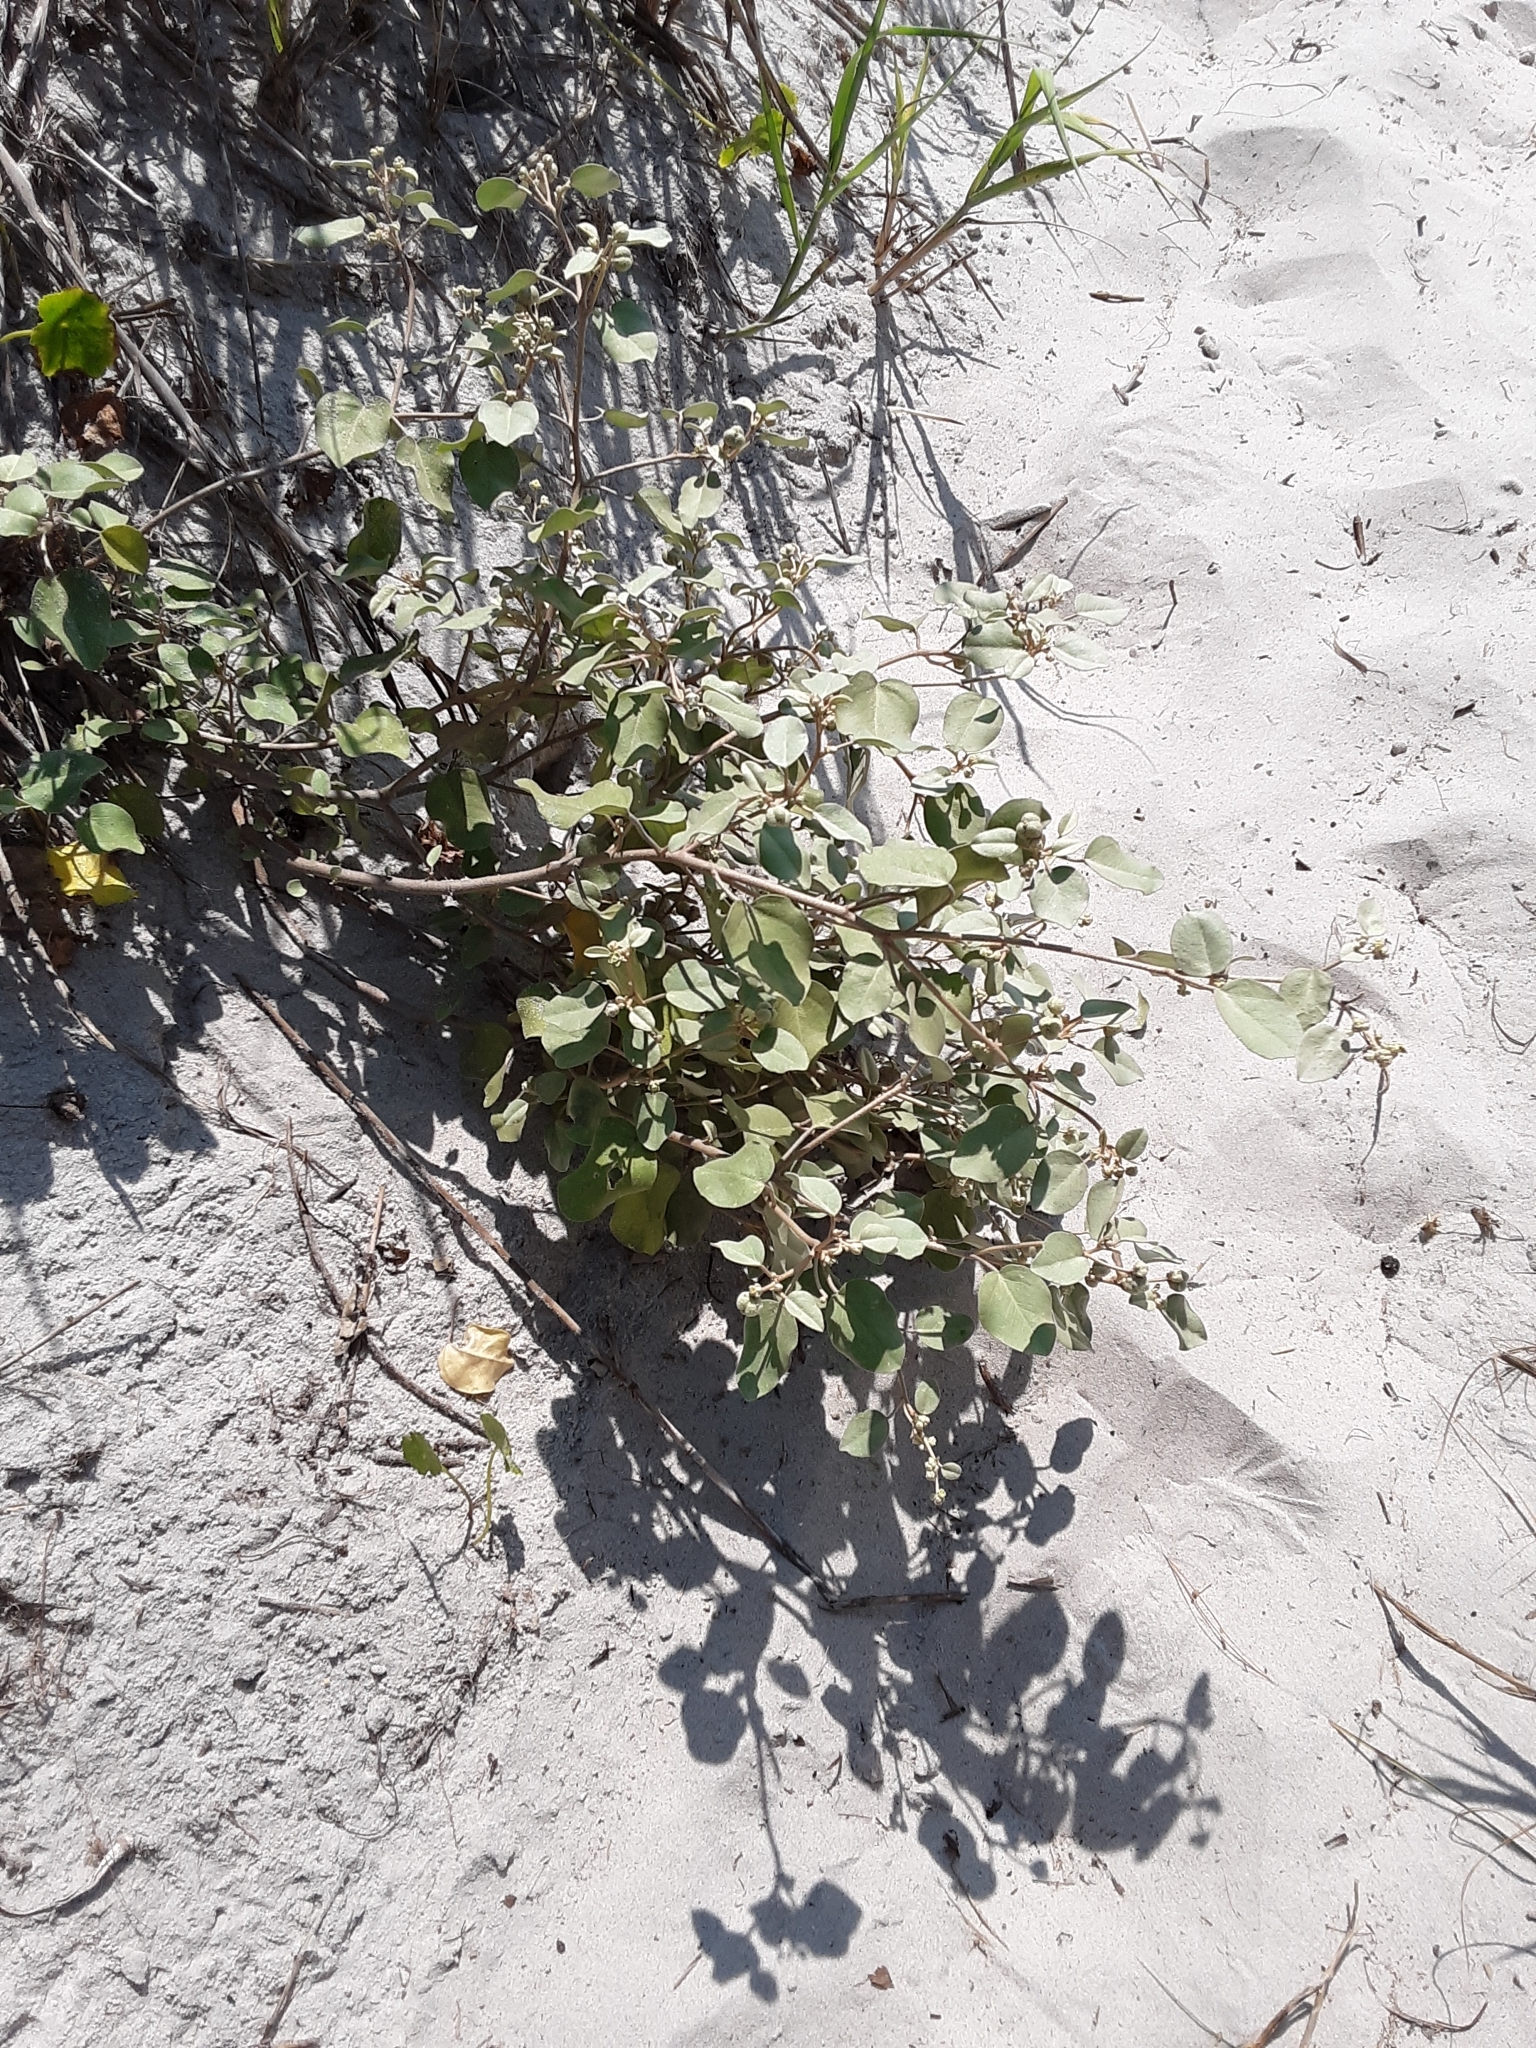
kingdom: Plantae
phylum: Tracheophyta
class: Magnoliopsida
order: Malpighiales
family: Euphorbiaceae
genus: Croton
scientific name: Croton punctatus
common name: Beach-tea
